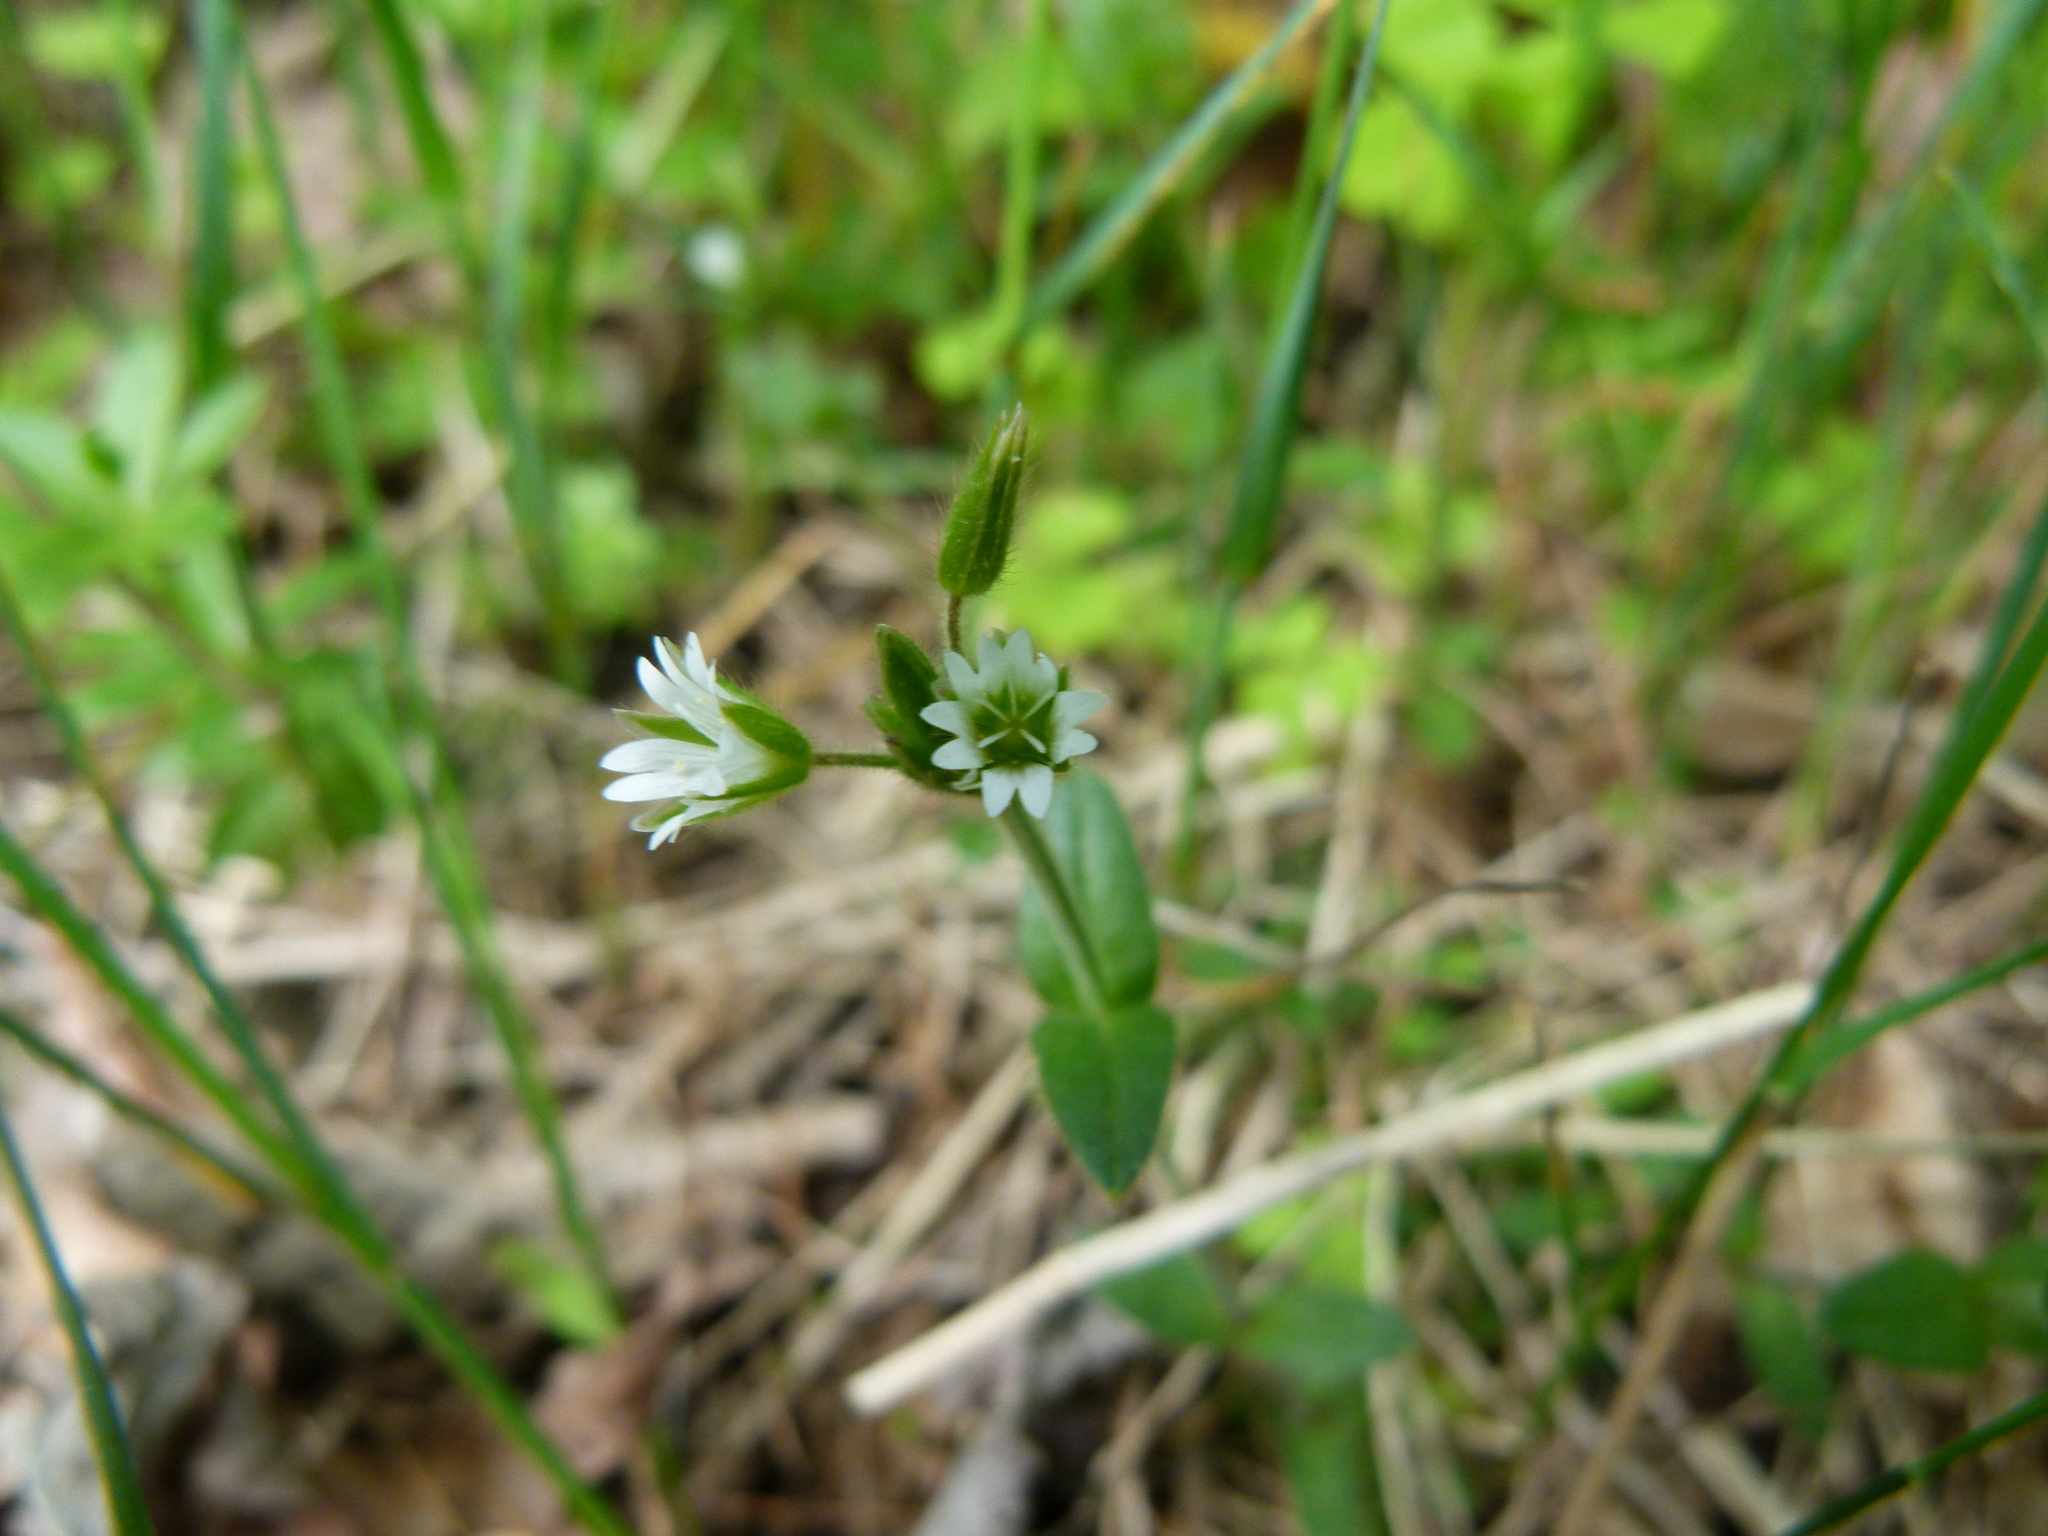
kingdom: Plantae
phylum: Tracheophyta
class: Magnoliopsida
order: Caryophyllales
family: Caryophyllaceae
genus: Cerastium
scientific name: Cerastium fontanum
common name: Common mouse-ear
